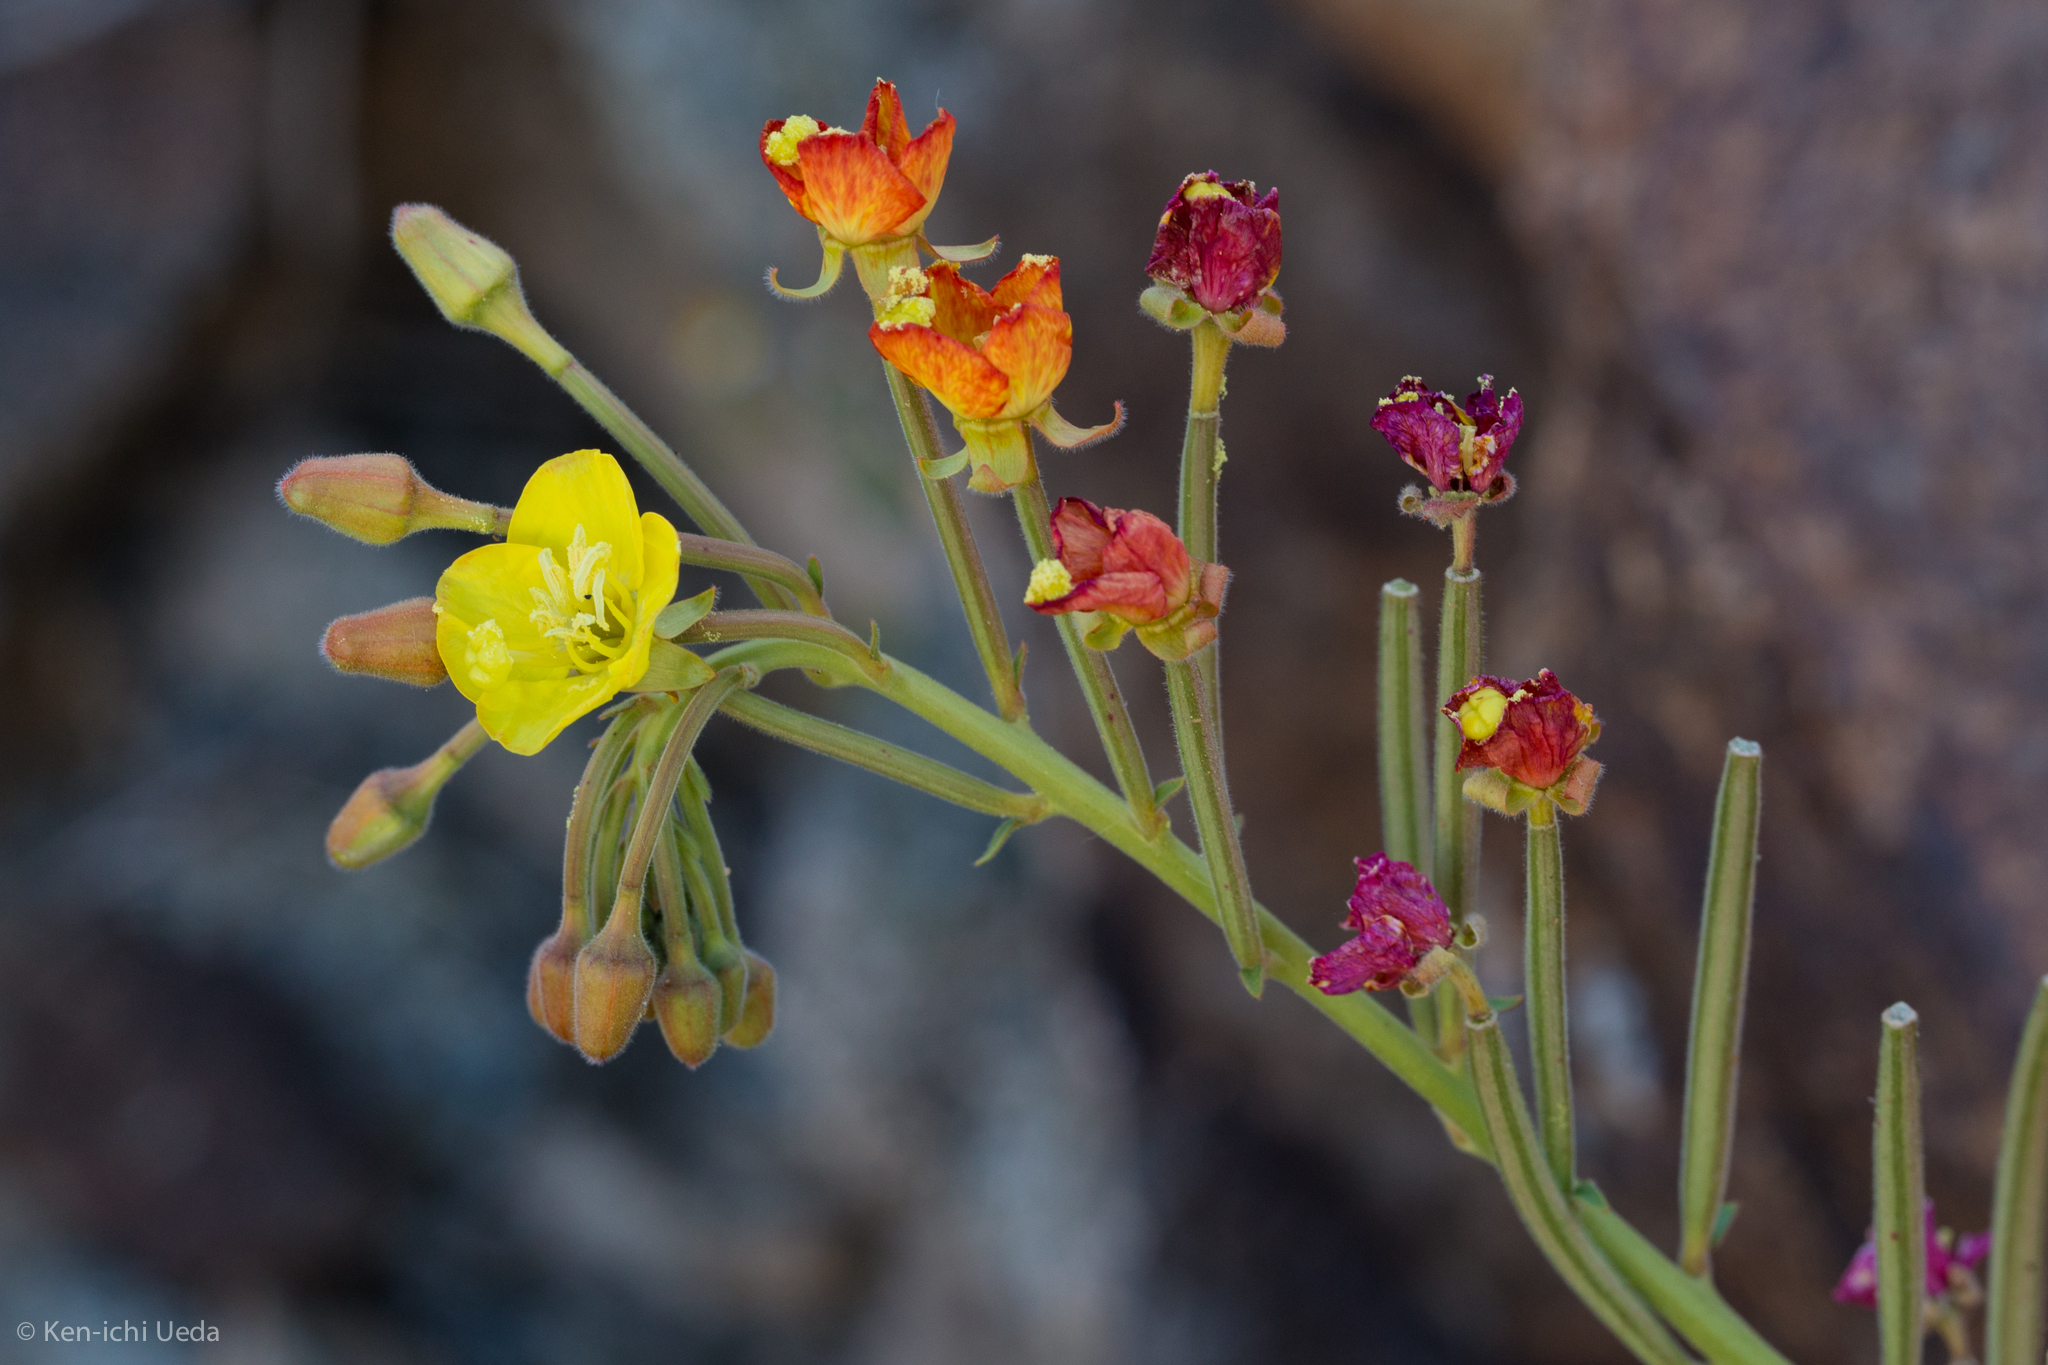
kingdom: Plantae
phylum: Tracheophyta
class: Magnoliopsida
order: Myrtales
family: Onagraceae
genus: Chylismia
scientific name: Chylismia cardiophylla
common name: Heartleaf suncup
